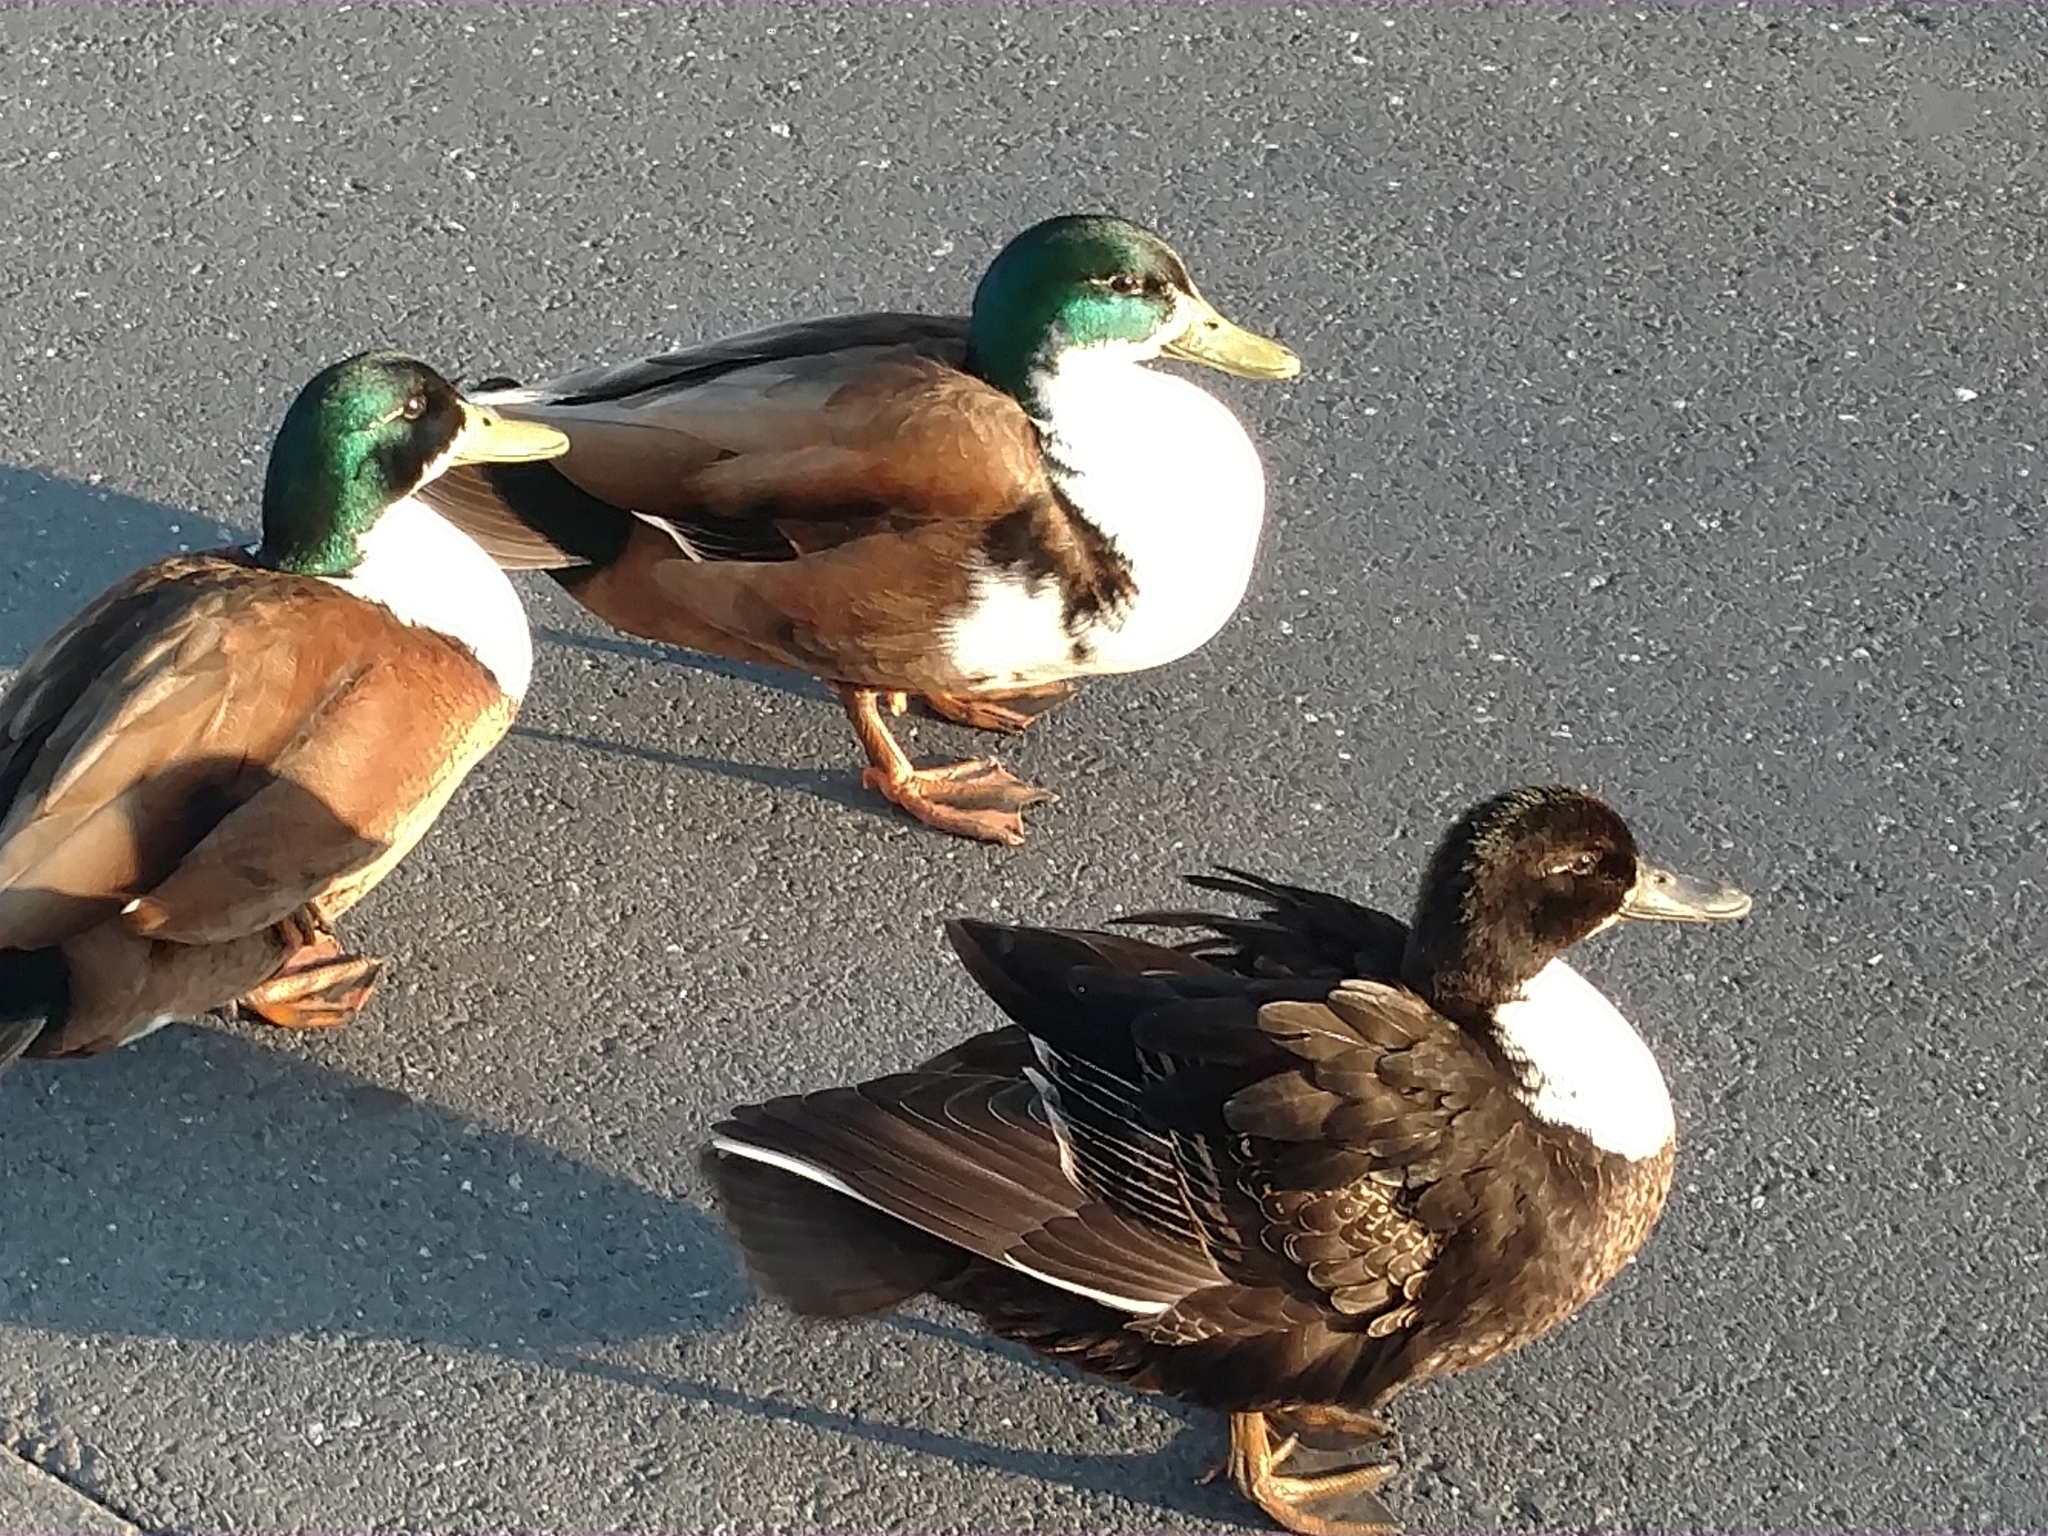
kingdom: Animalia
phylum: Chordata
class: Aves
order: Anseriformes
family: Anatidae
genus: Anas
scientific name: Anas platyrhynchos
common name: Mallard
